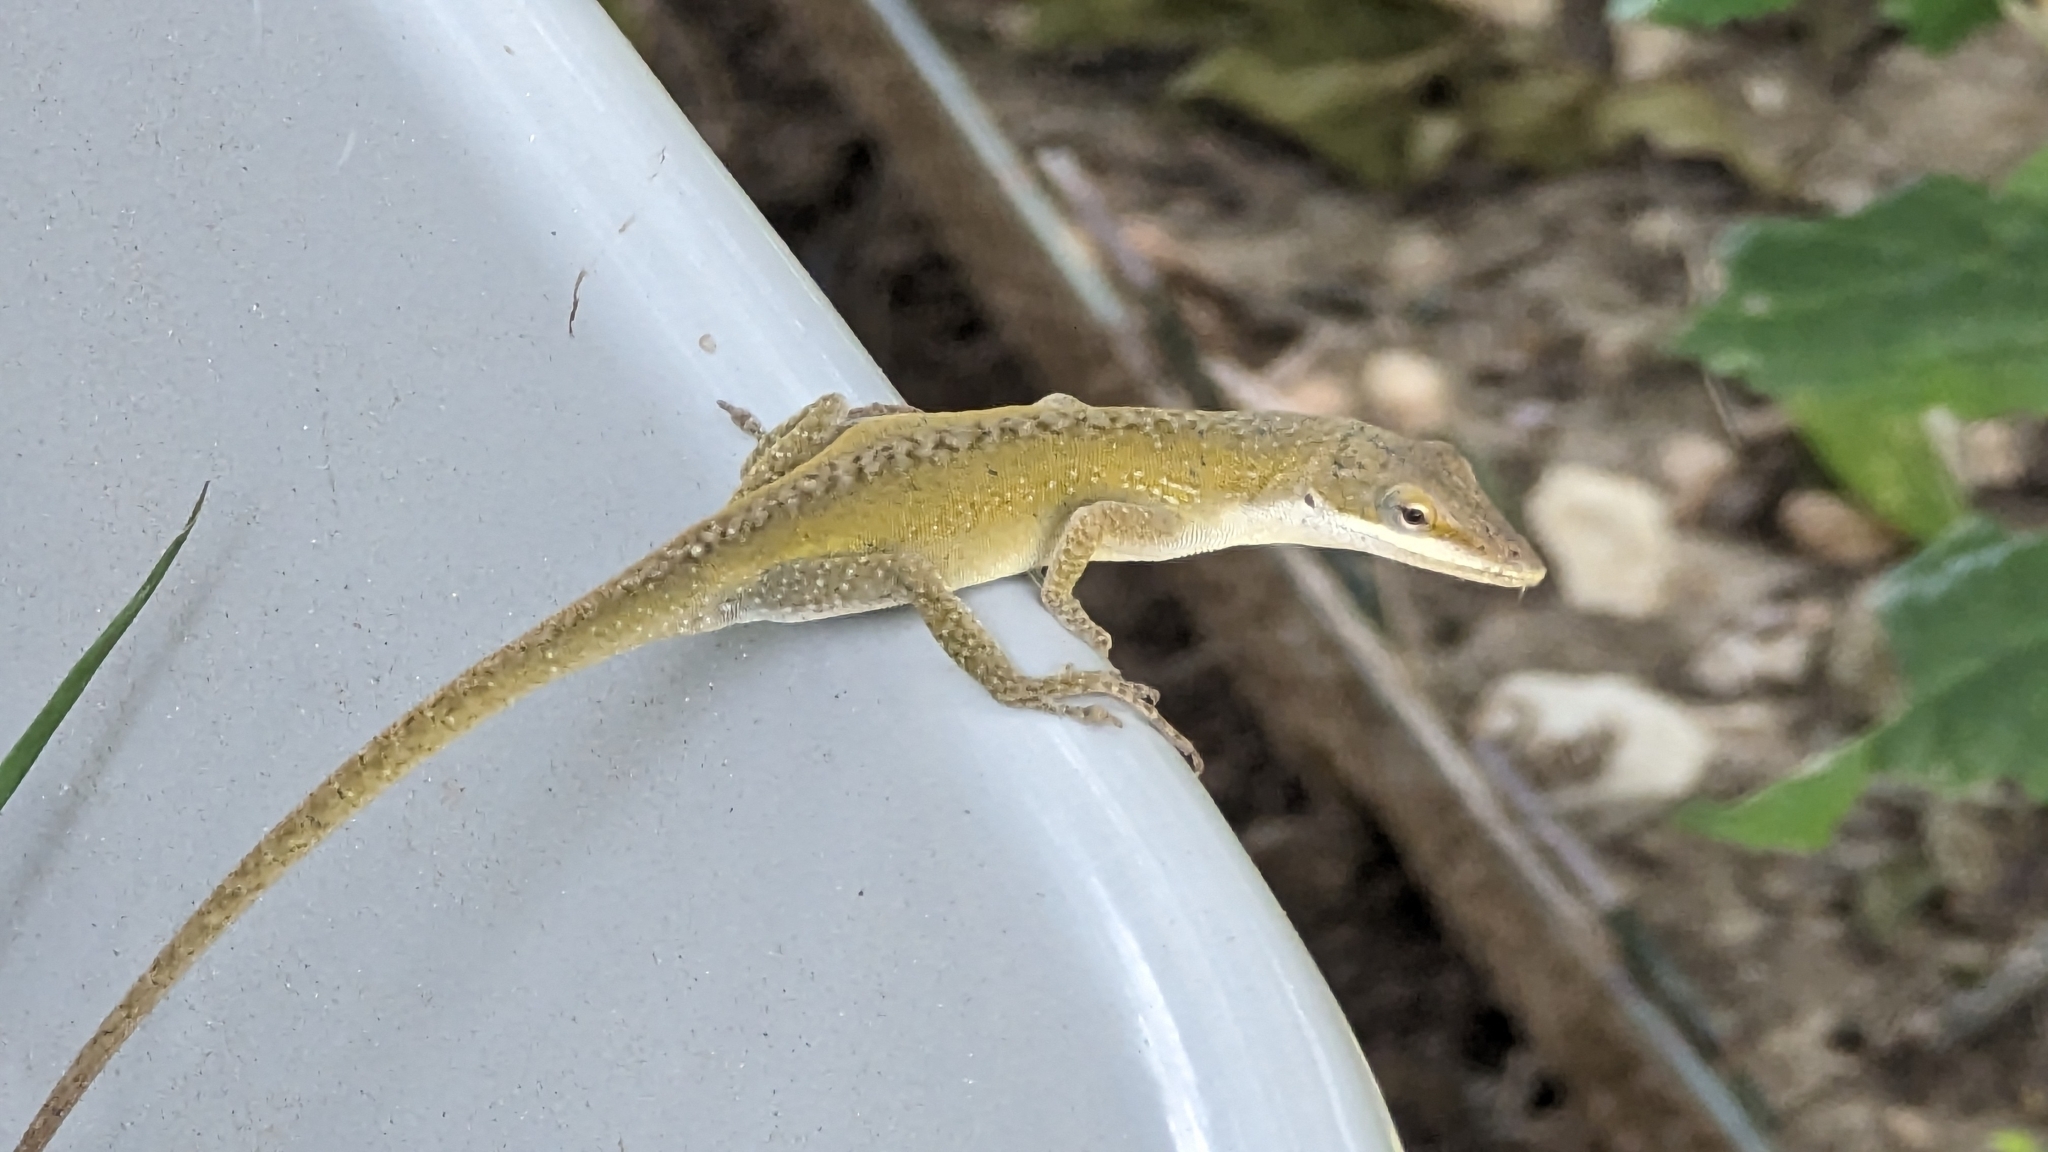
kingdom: Animalia
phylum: Chordata
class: Squamata
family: Dactyloidae
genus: Anolis
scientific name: Anolis carolinensis
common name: Green anole
